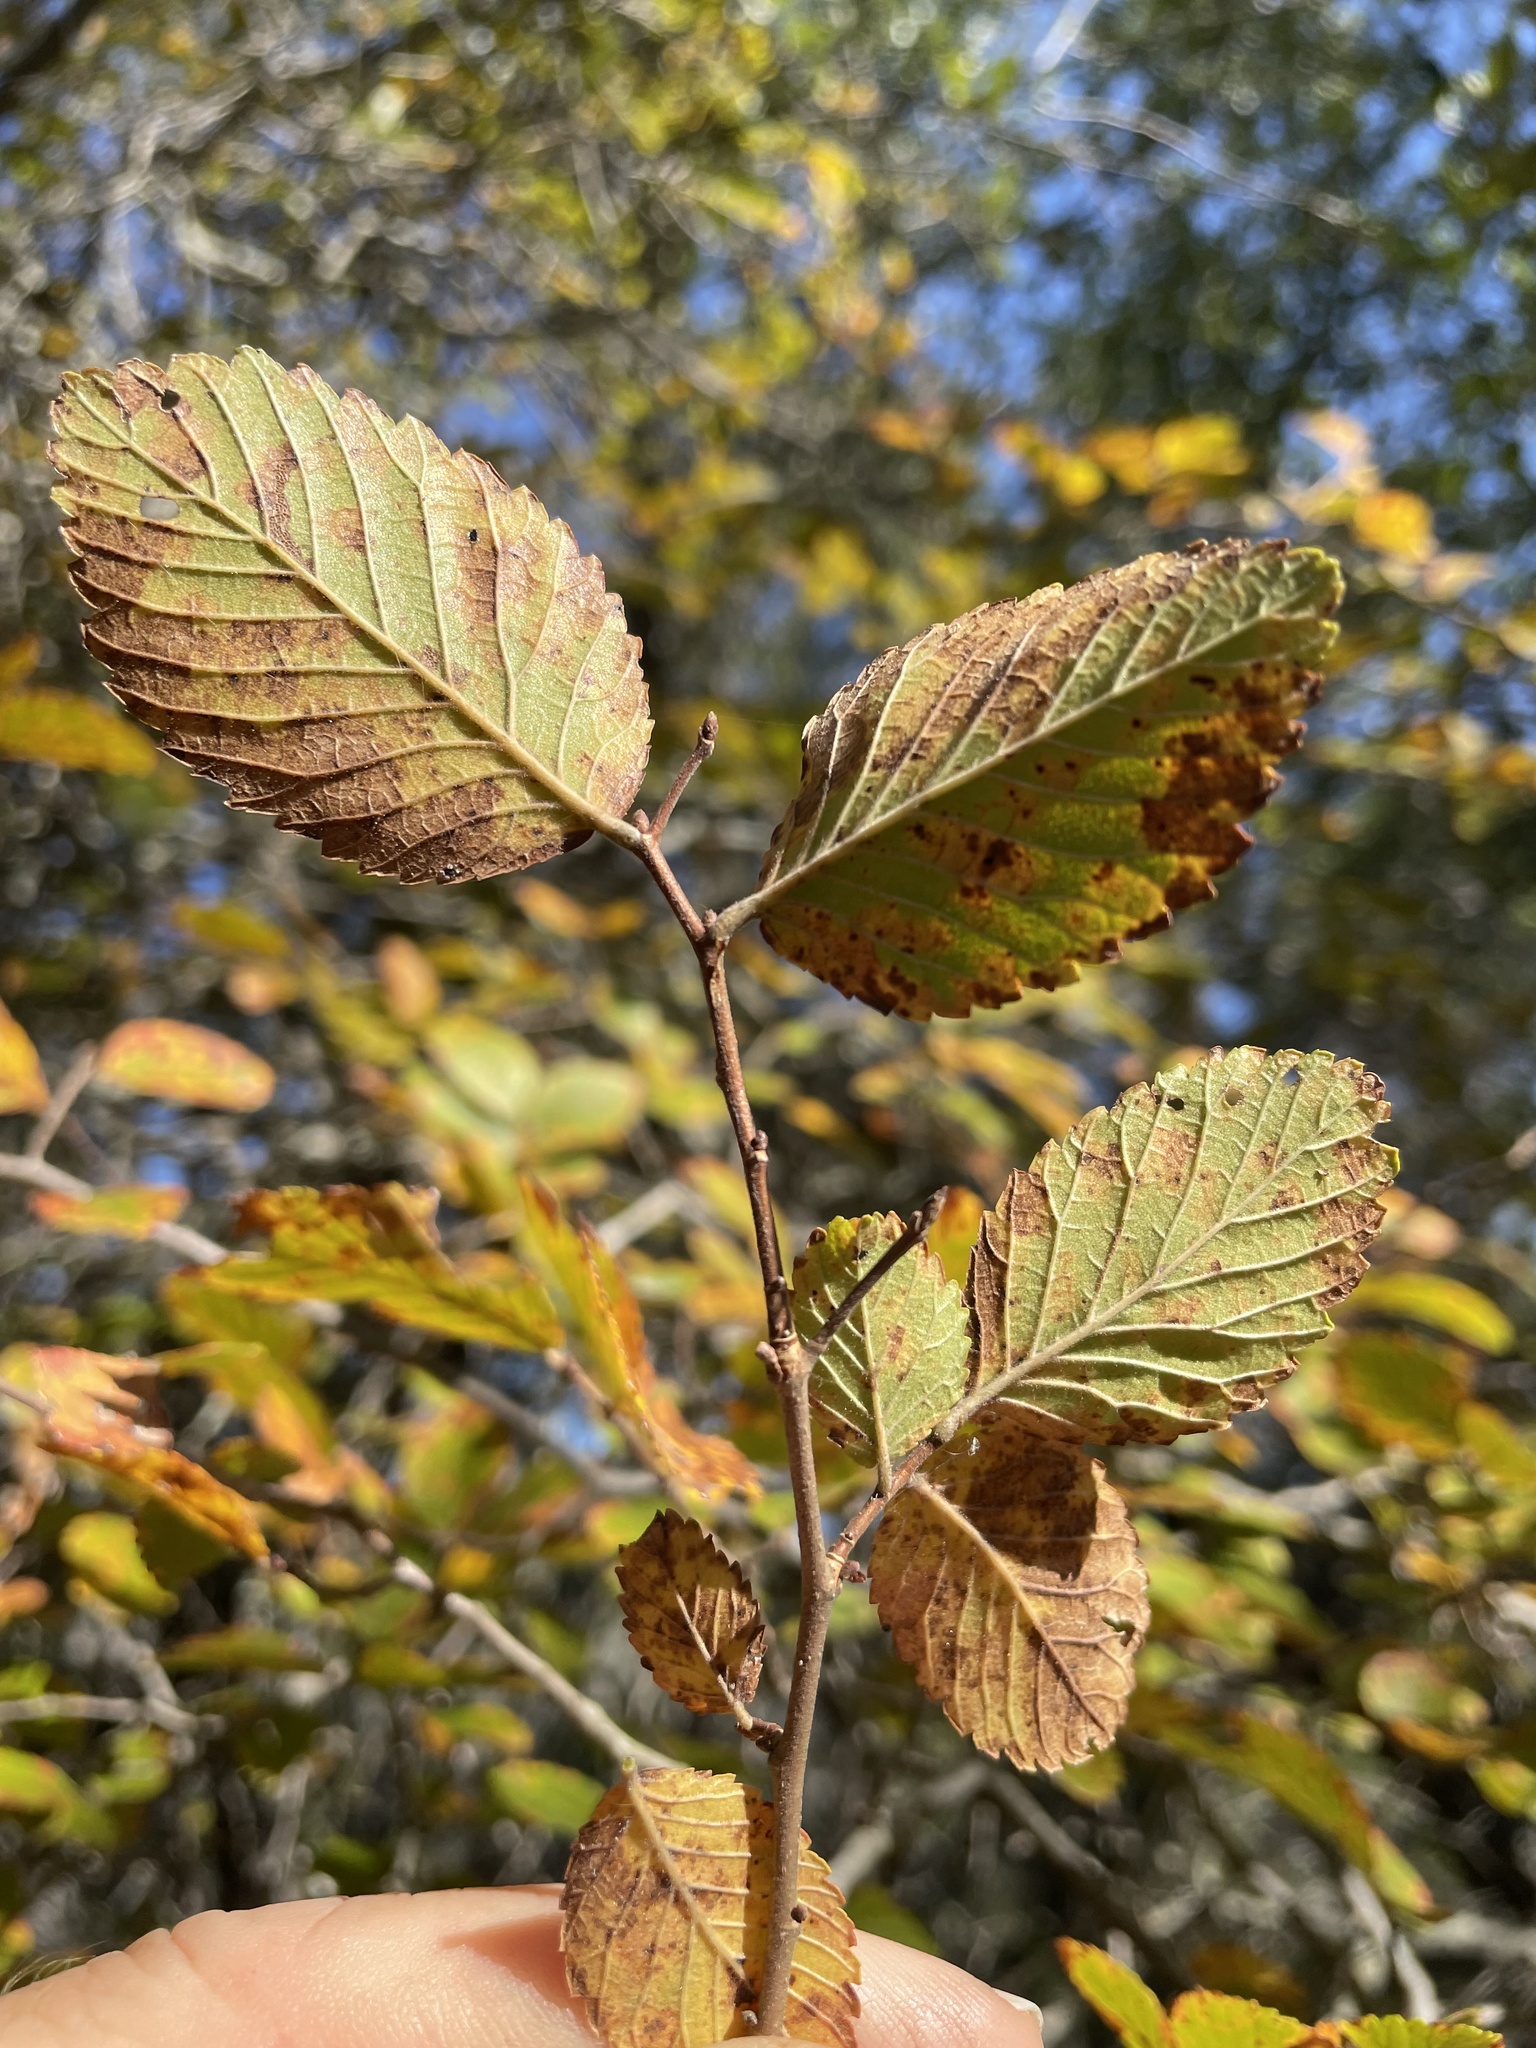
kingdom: Plantae
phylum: Tracheophyta
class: Magnoliopsida
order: Rosales
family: Ulmaceae
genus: Ulmus
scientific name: Ulmus crassifolia
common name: Basket elm
